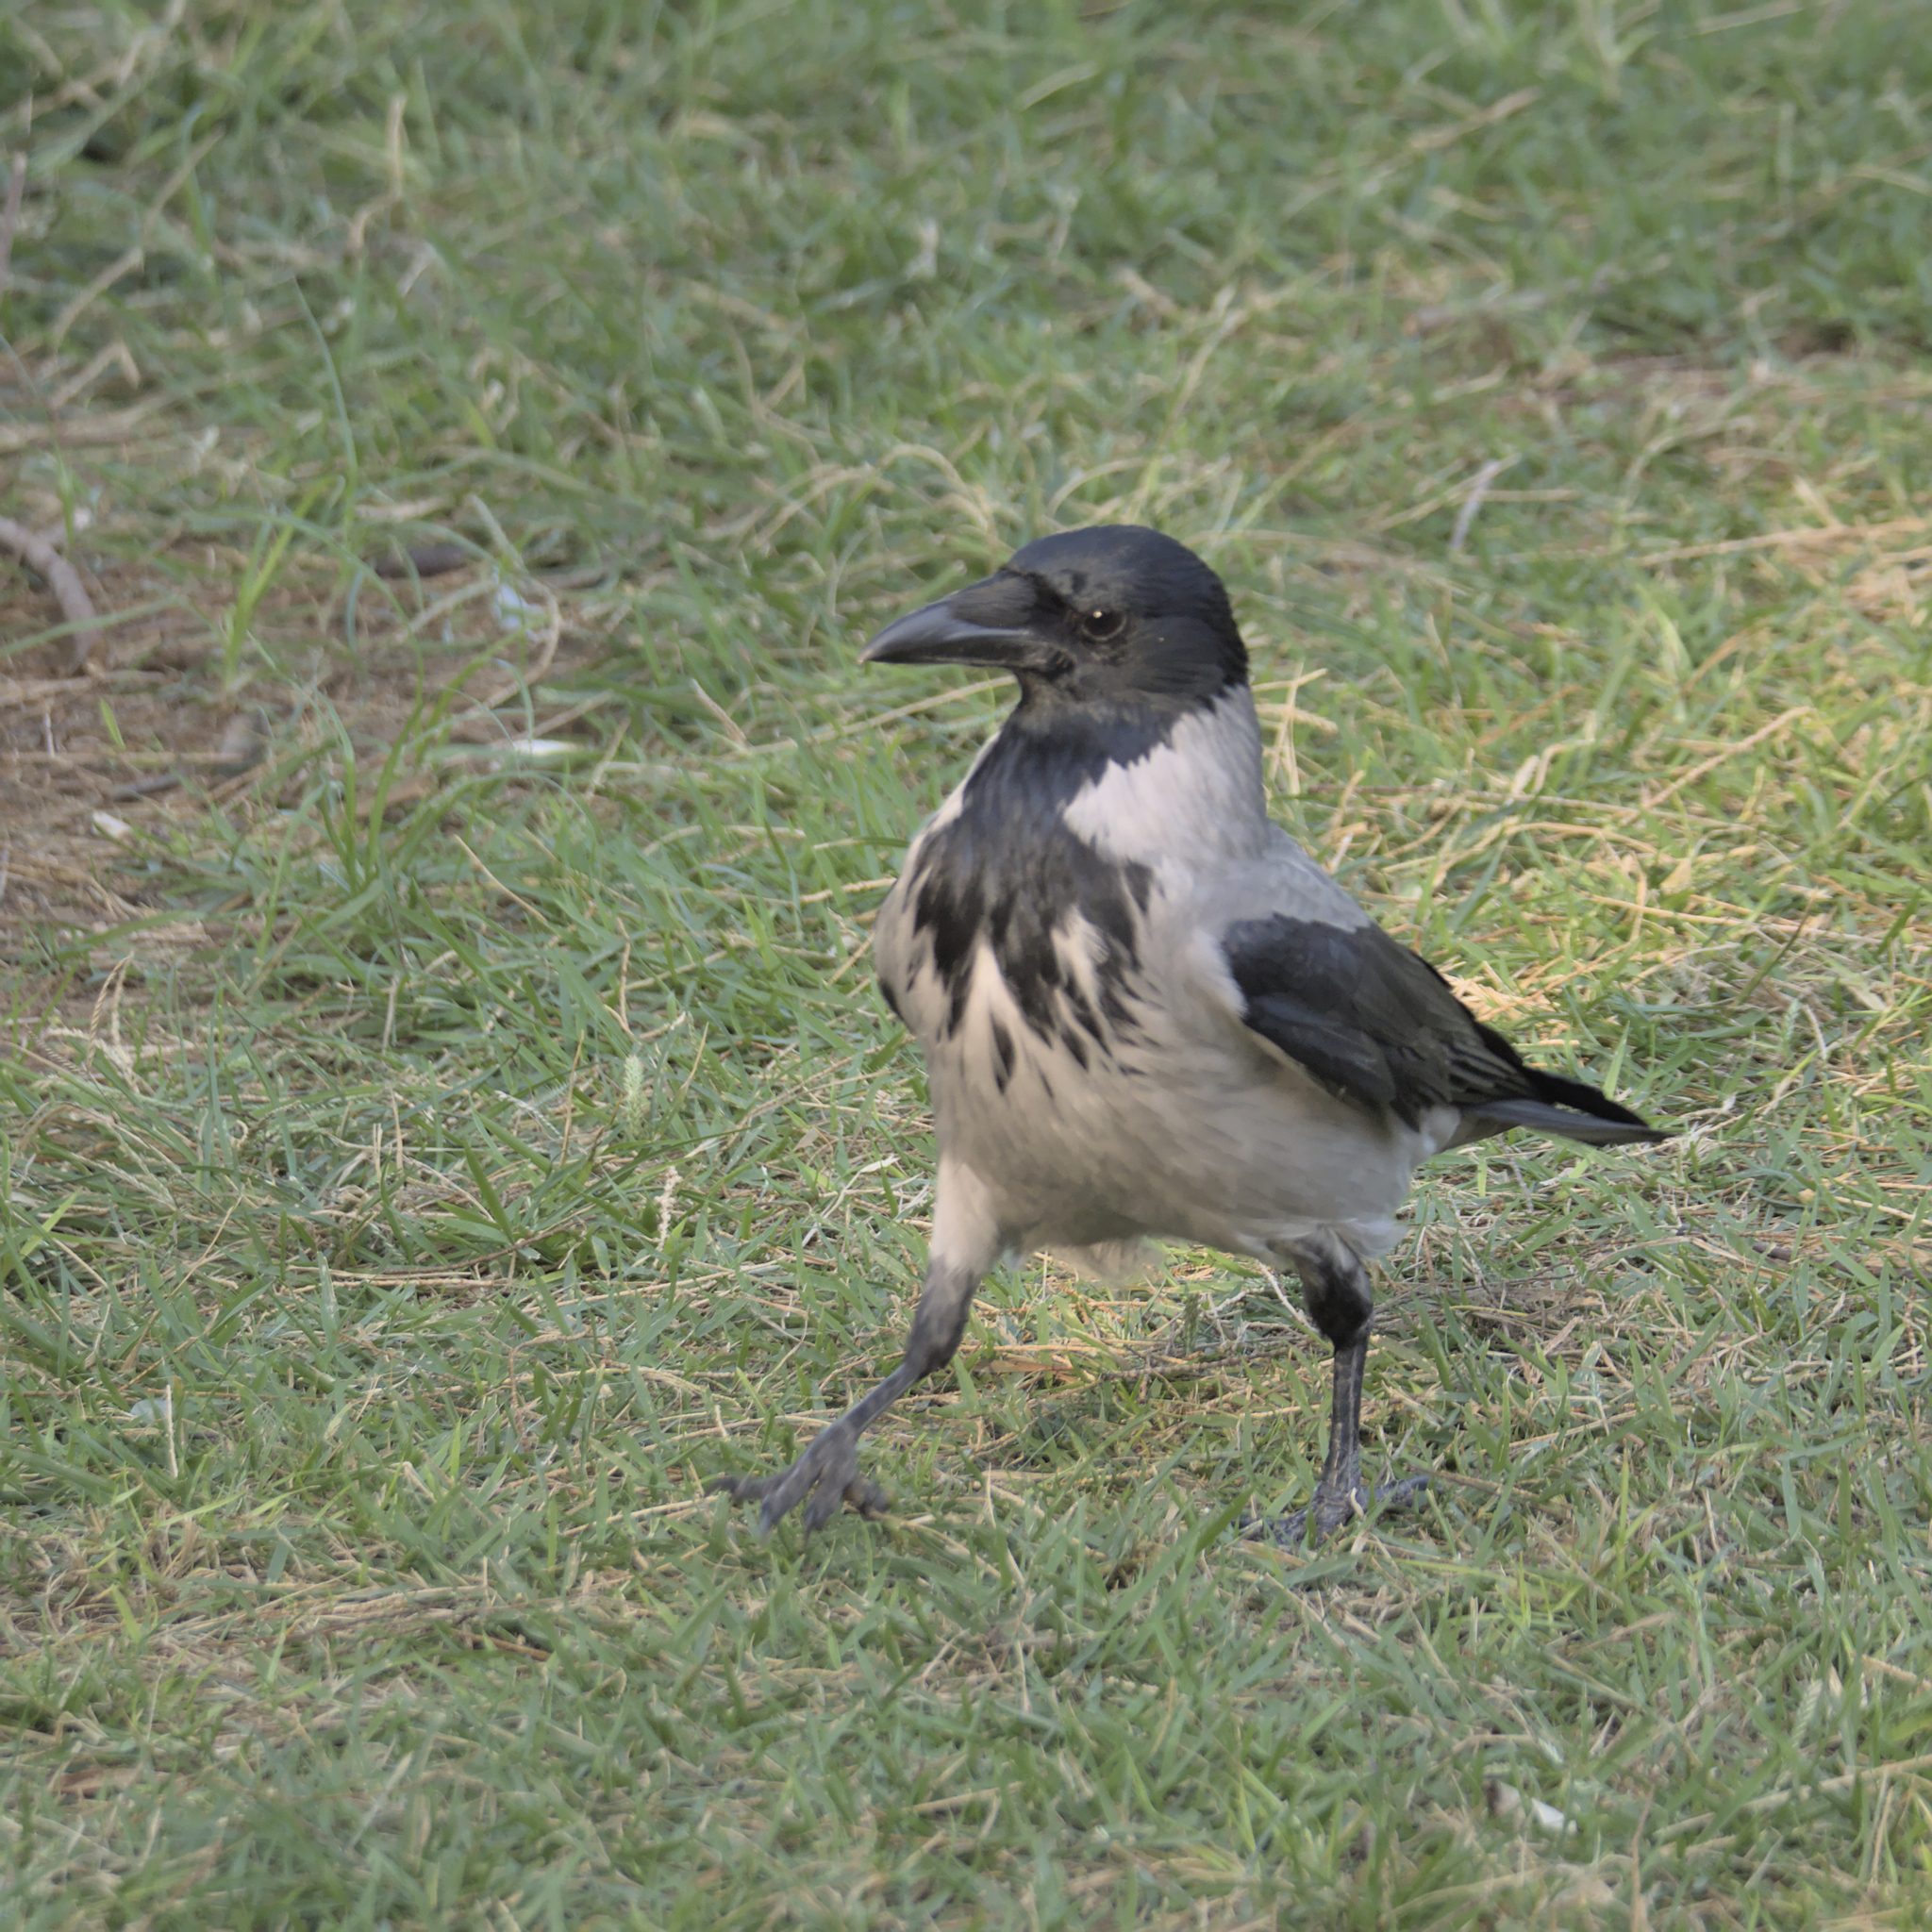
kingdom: Animalia
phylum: Chordata
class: Aves
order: Passeriformes
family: Corvidae
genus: Corvus
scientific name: Corvus cornix
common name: Hooded crow
